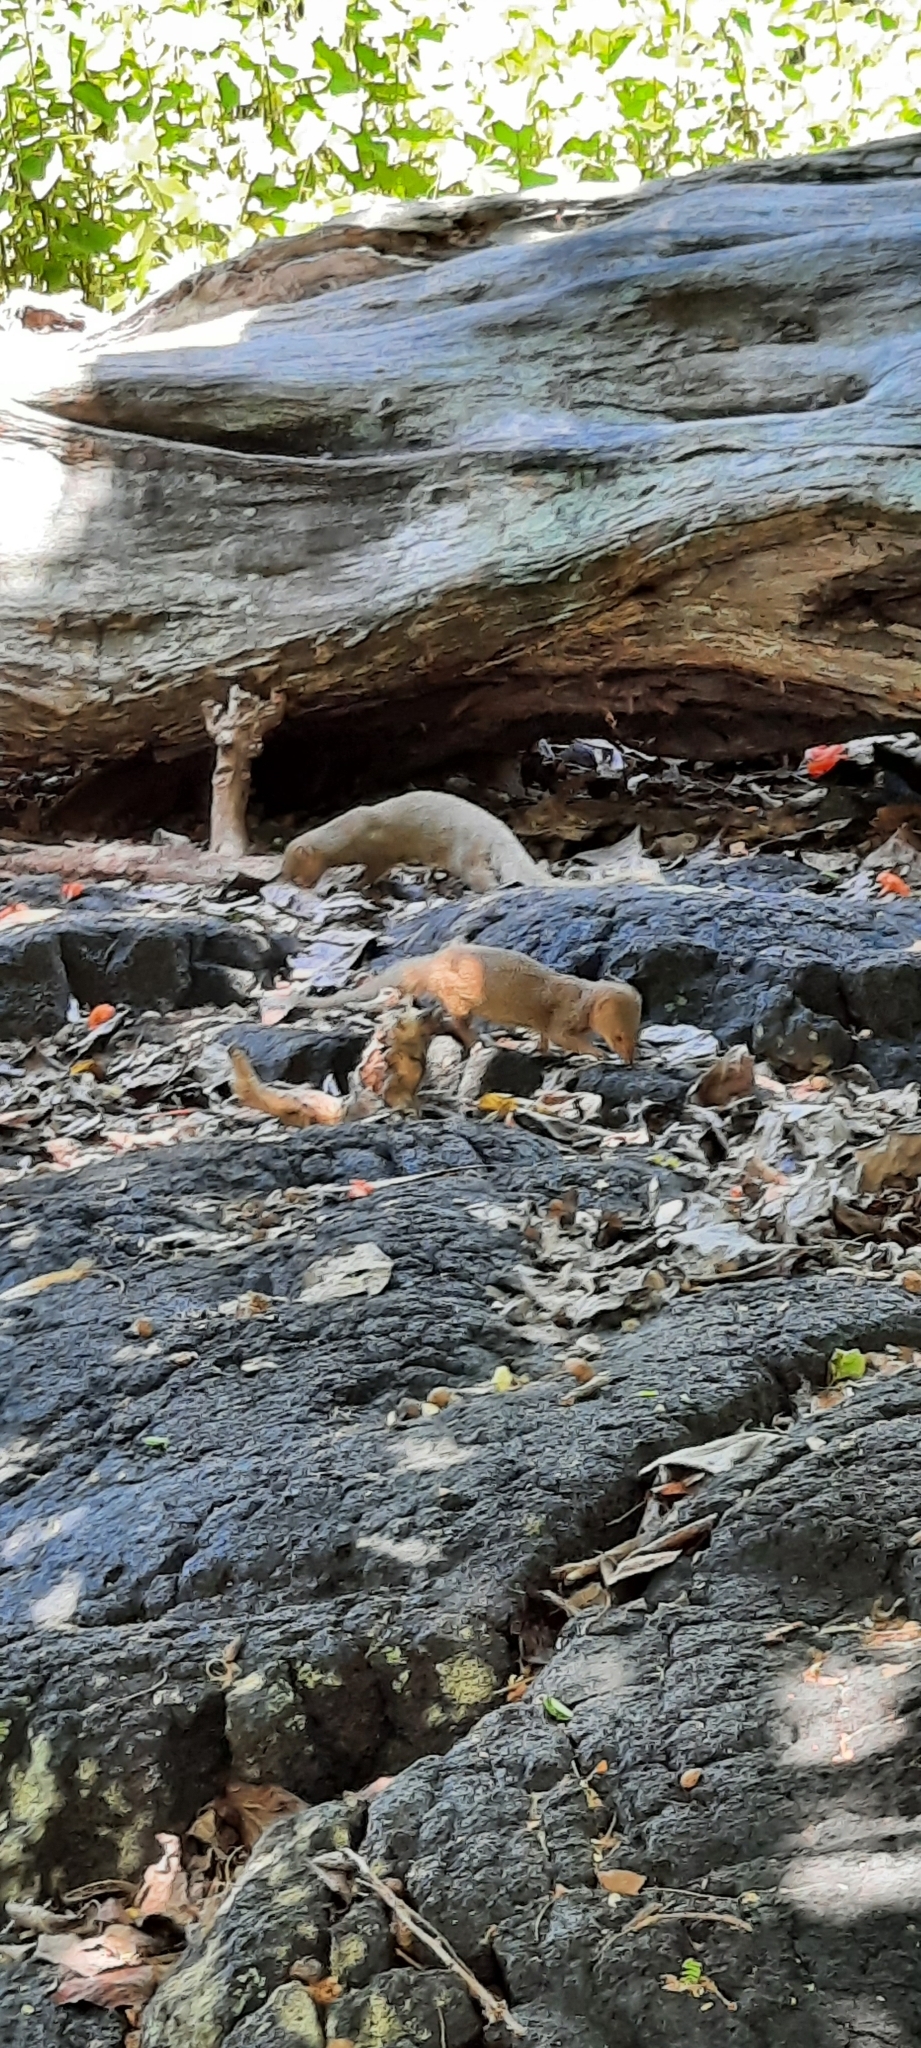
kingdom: Animalia
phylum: Chordata
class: Mammalia
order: Carnivora
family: Herpestidae
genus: Herpestes
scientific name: Herpestes javanicus
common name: Small asian mongoose
